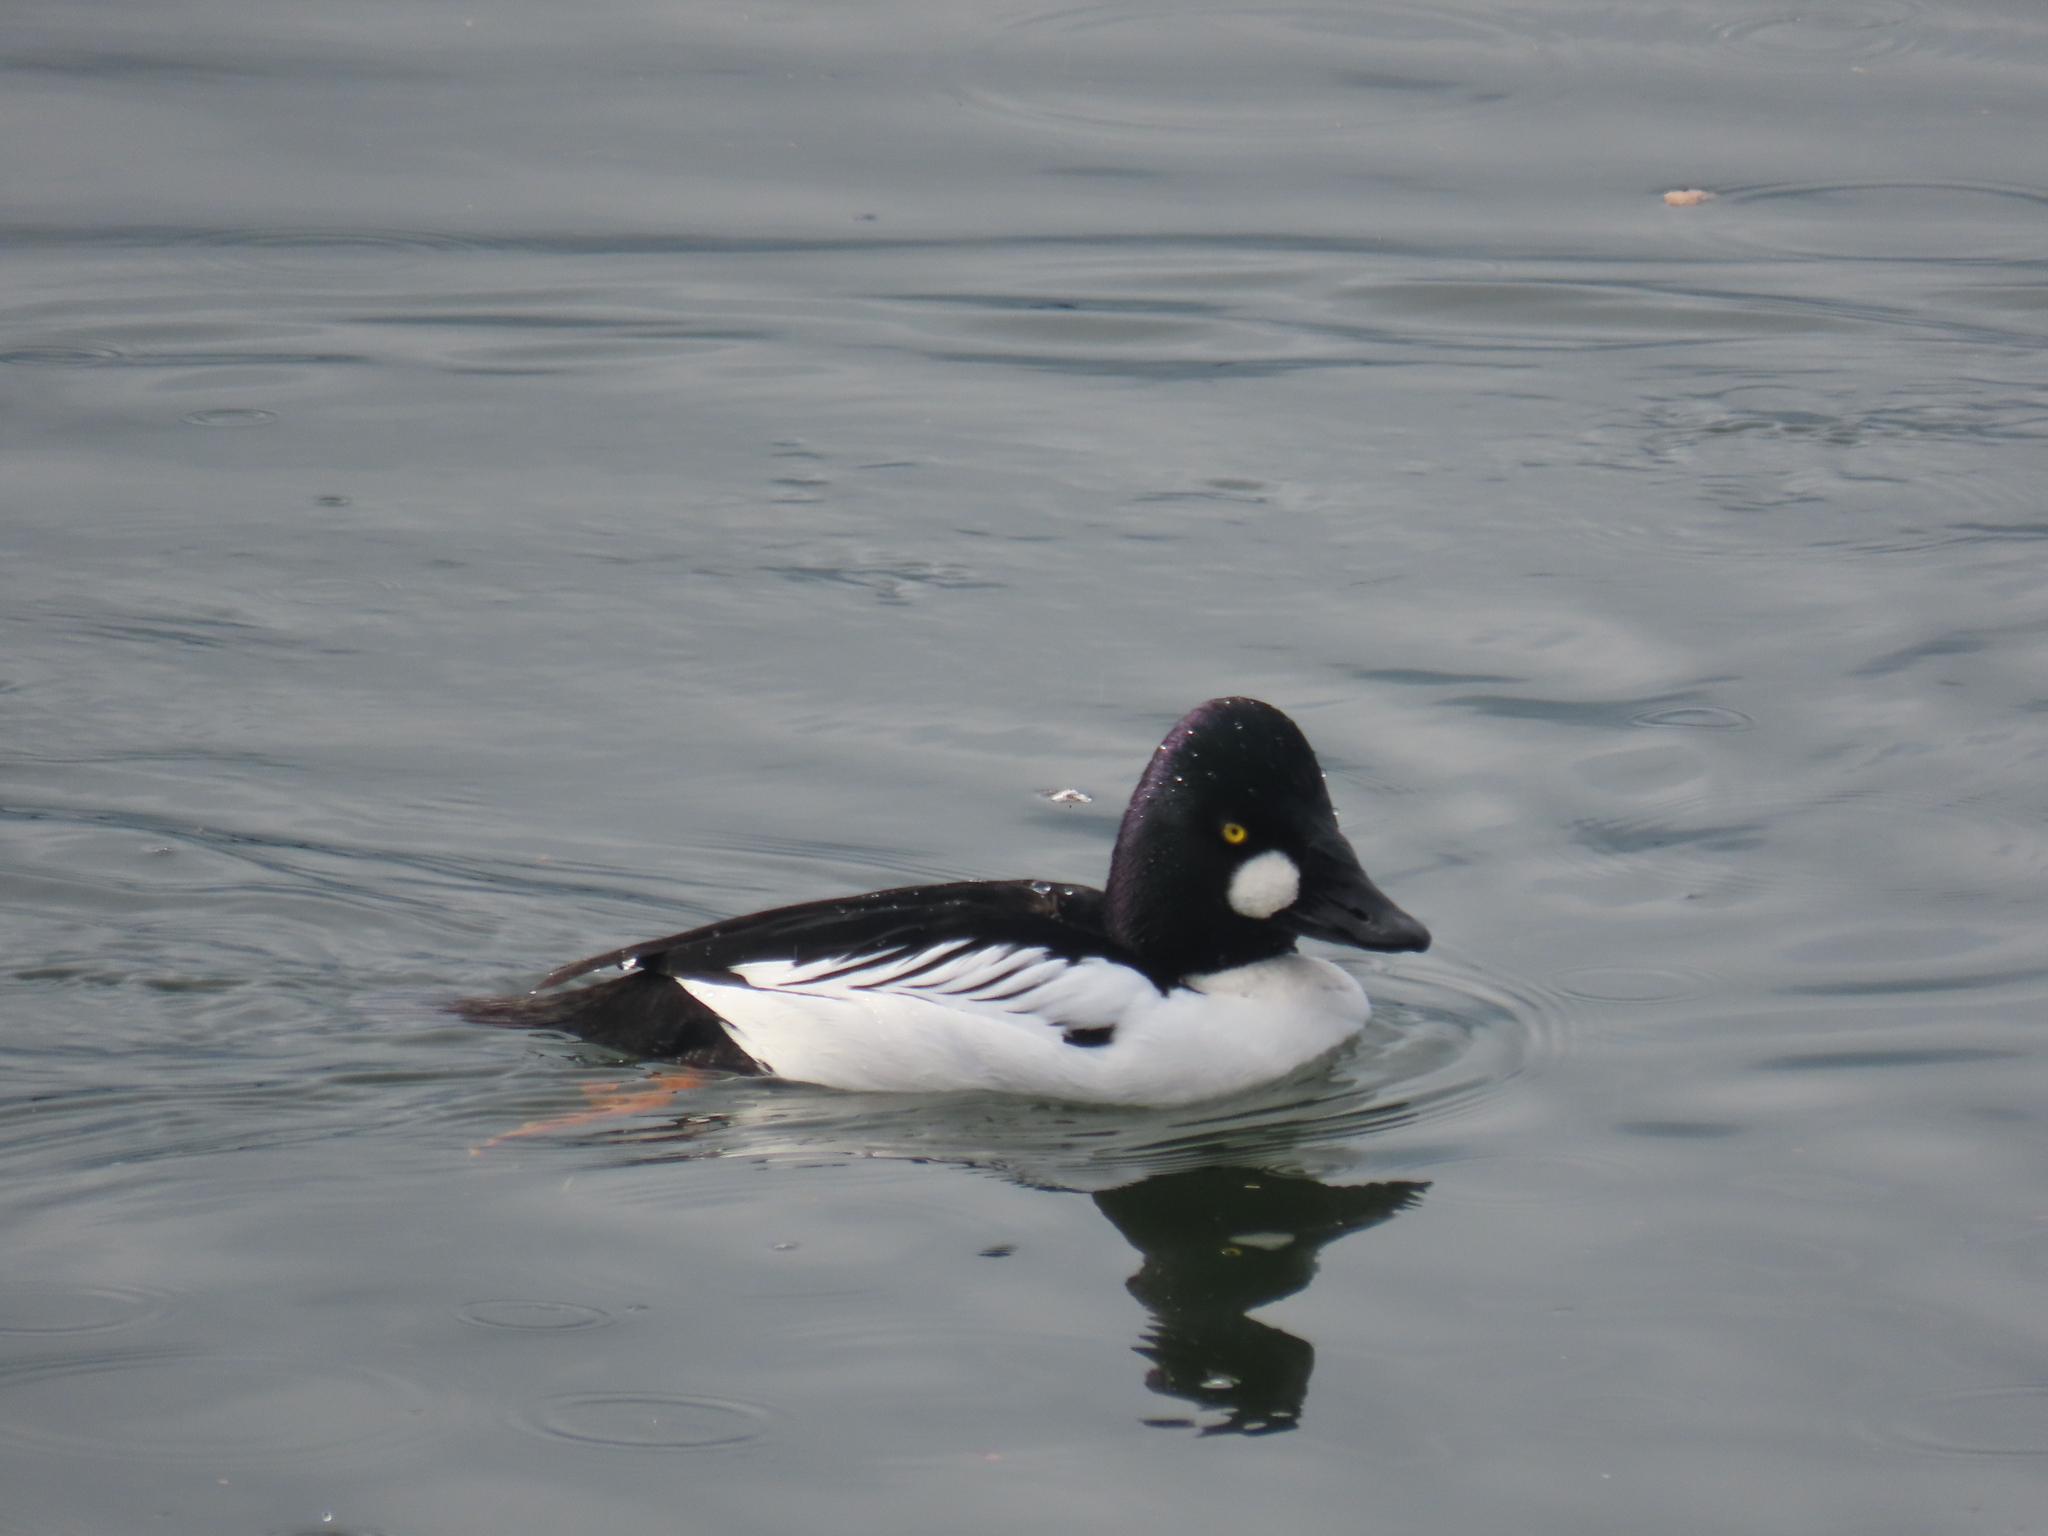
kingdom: Animalia
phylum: Chordata
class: Aves
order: Anseriformes
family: Anatidae
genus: Bucephala
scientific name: Bucephala clangula
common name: Common goldeneye
